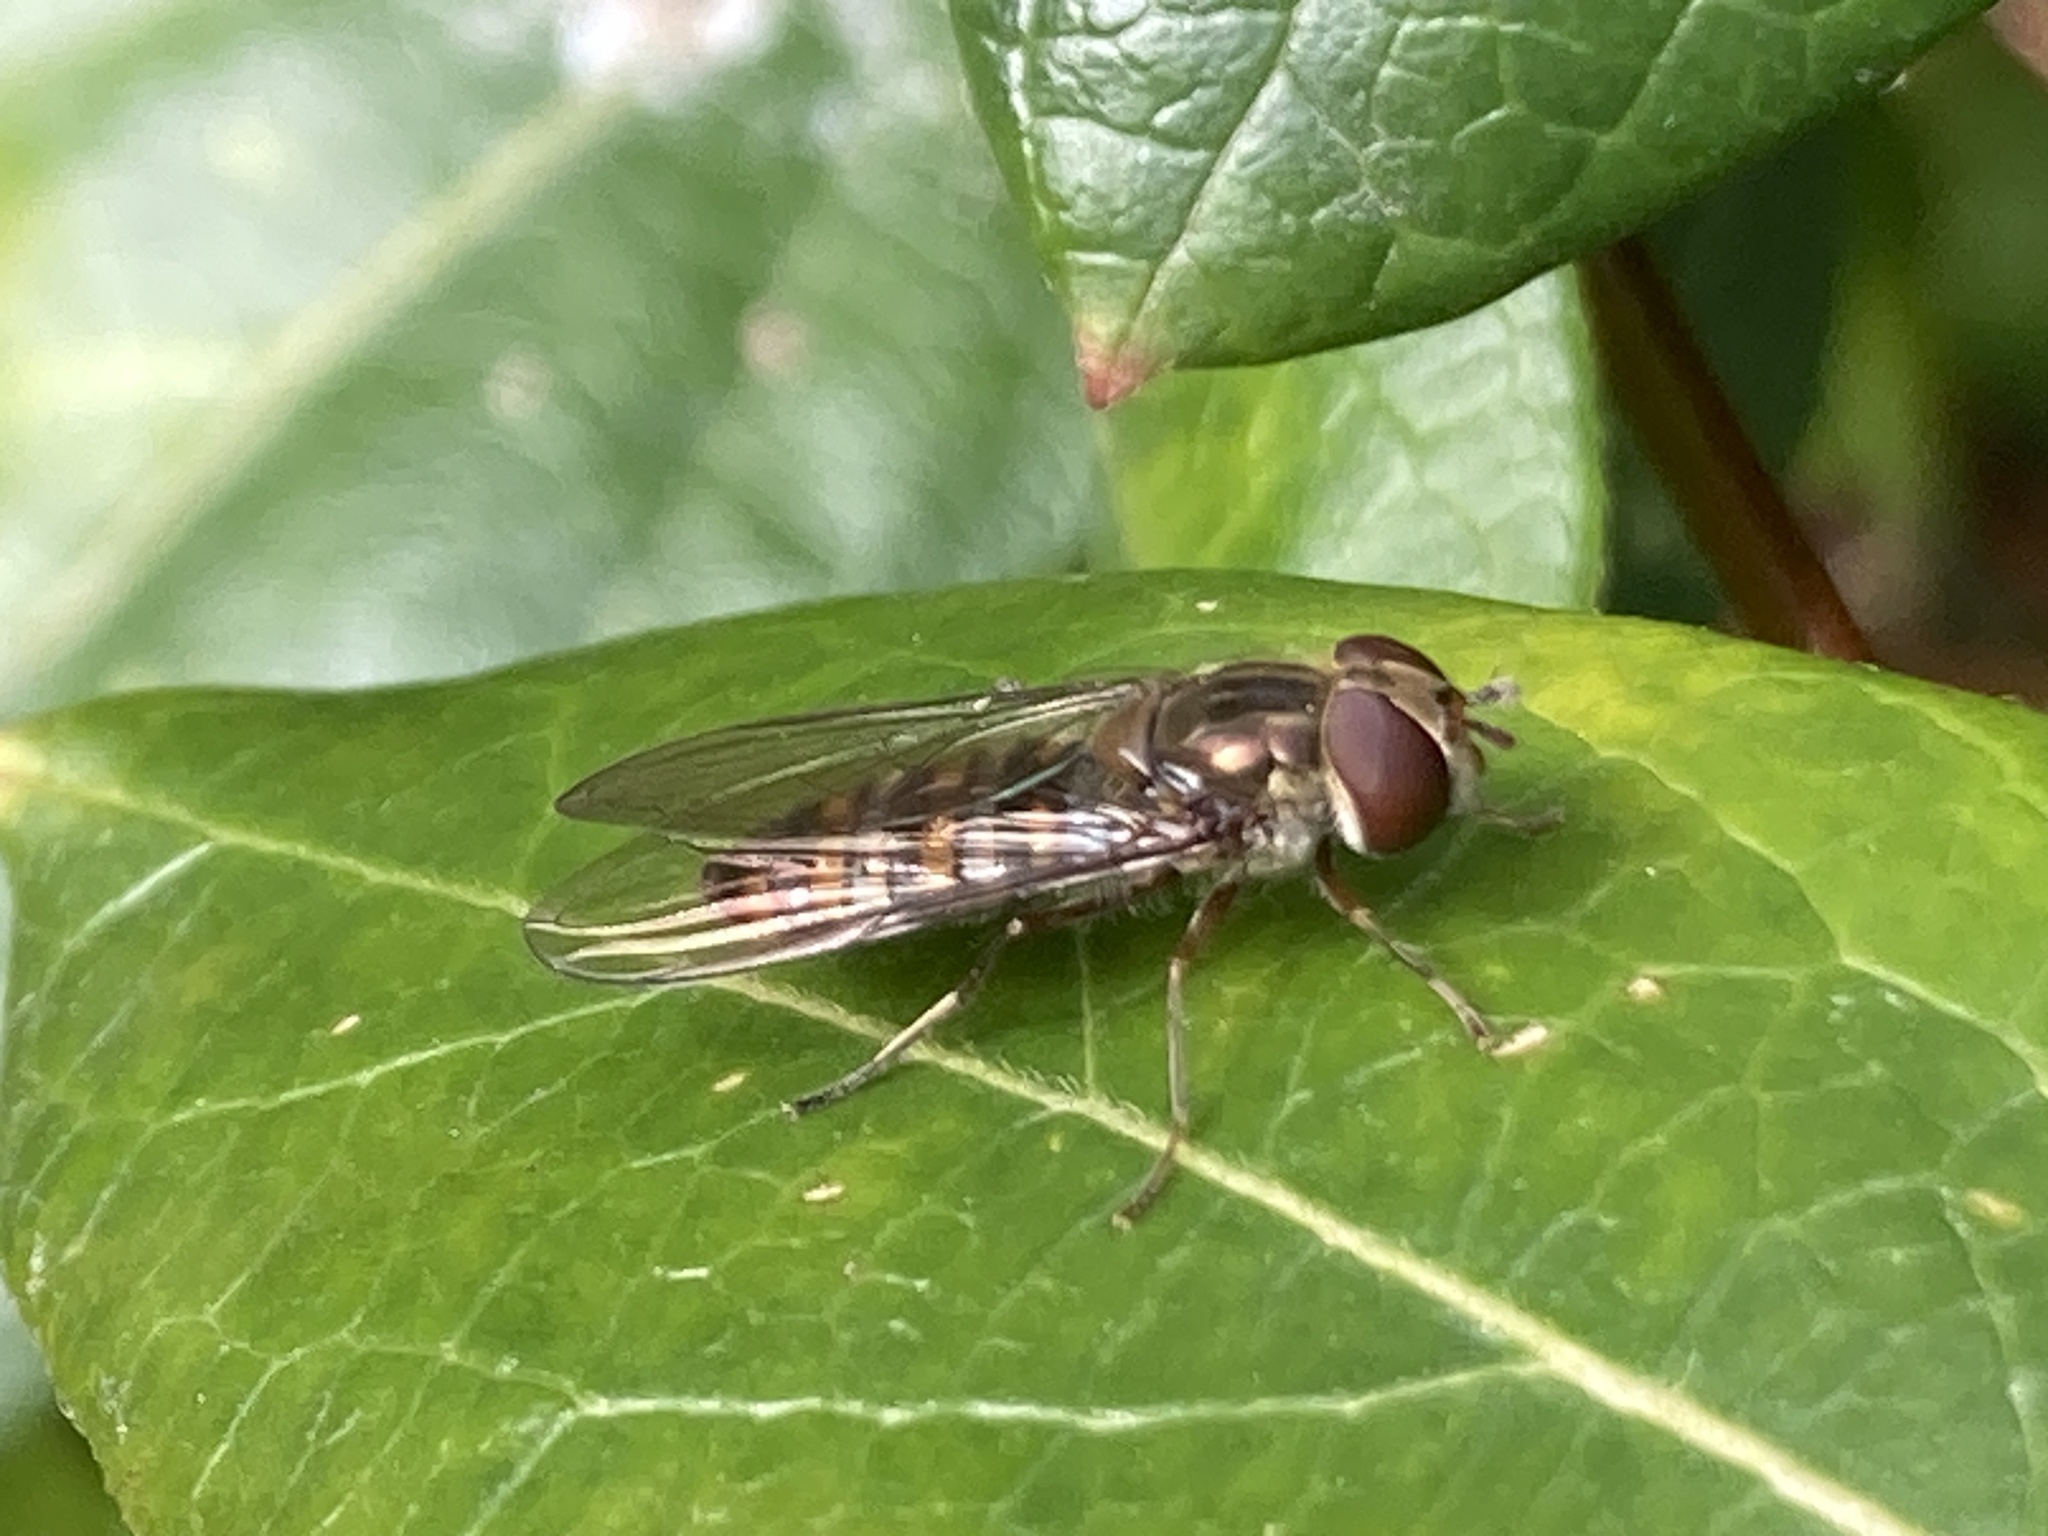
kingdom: Animalia
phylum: Arthropoda
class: Insecta
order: Diptera
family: Syrphidae
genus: Episyrphus
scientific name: Episyrphus balteatus
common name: Marmalade hoverfly
